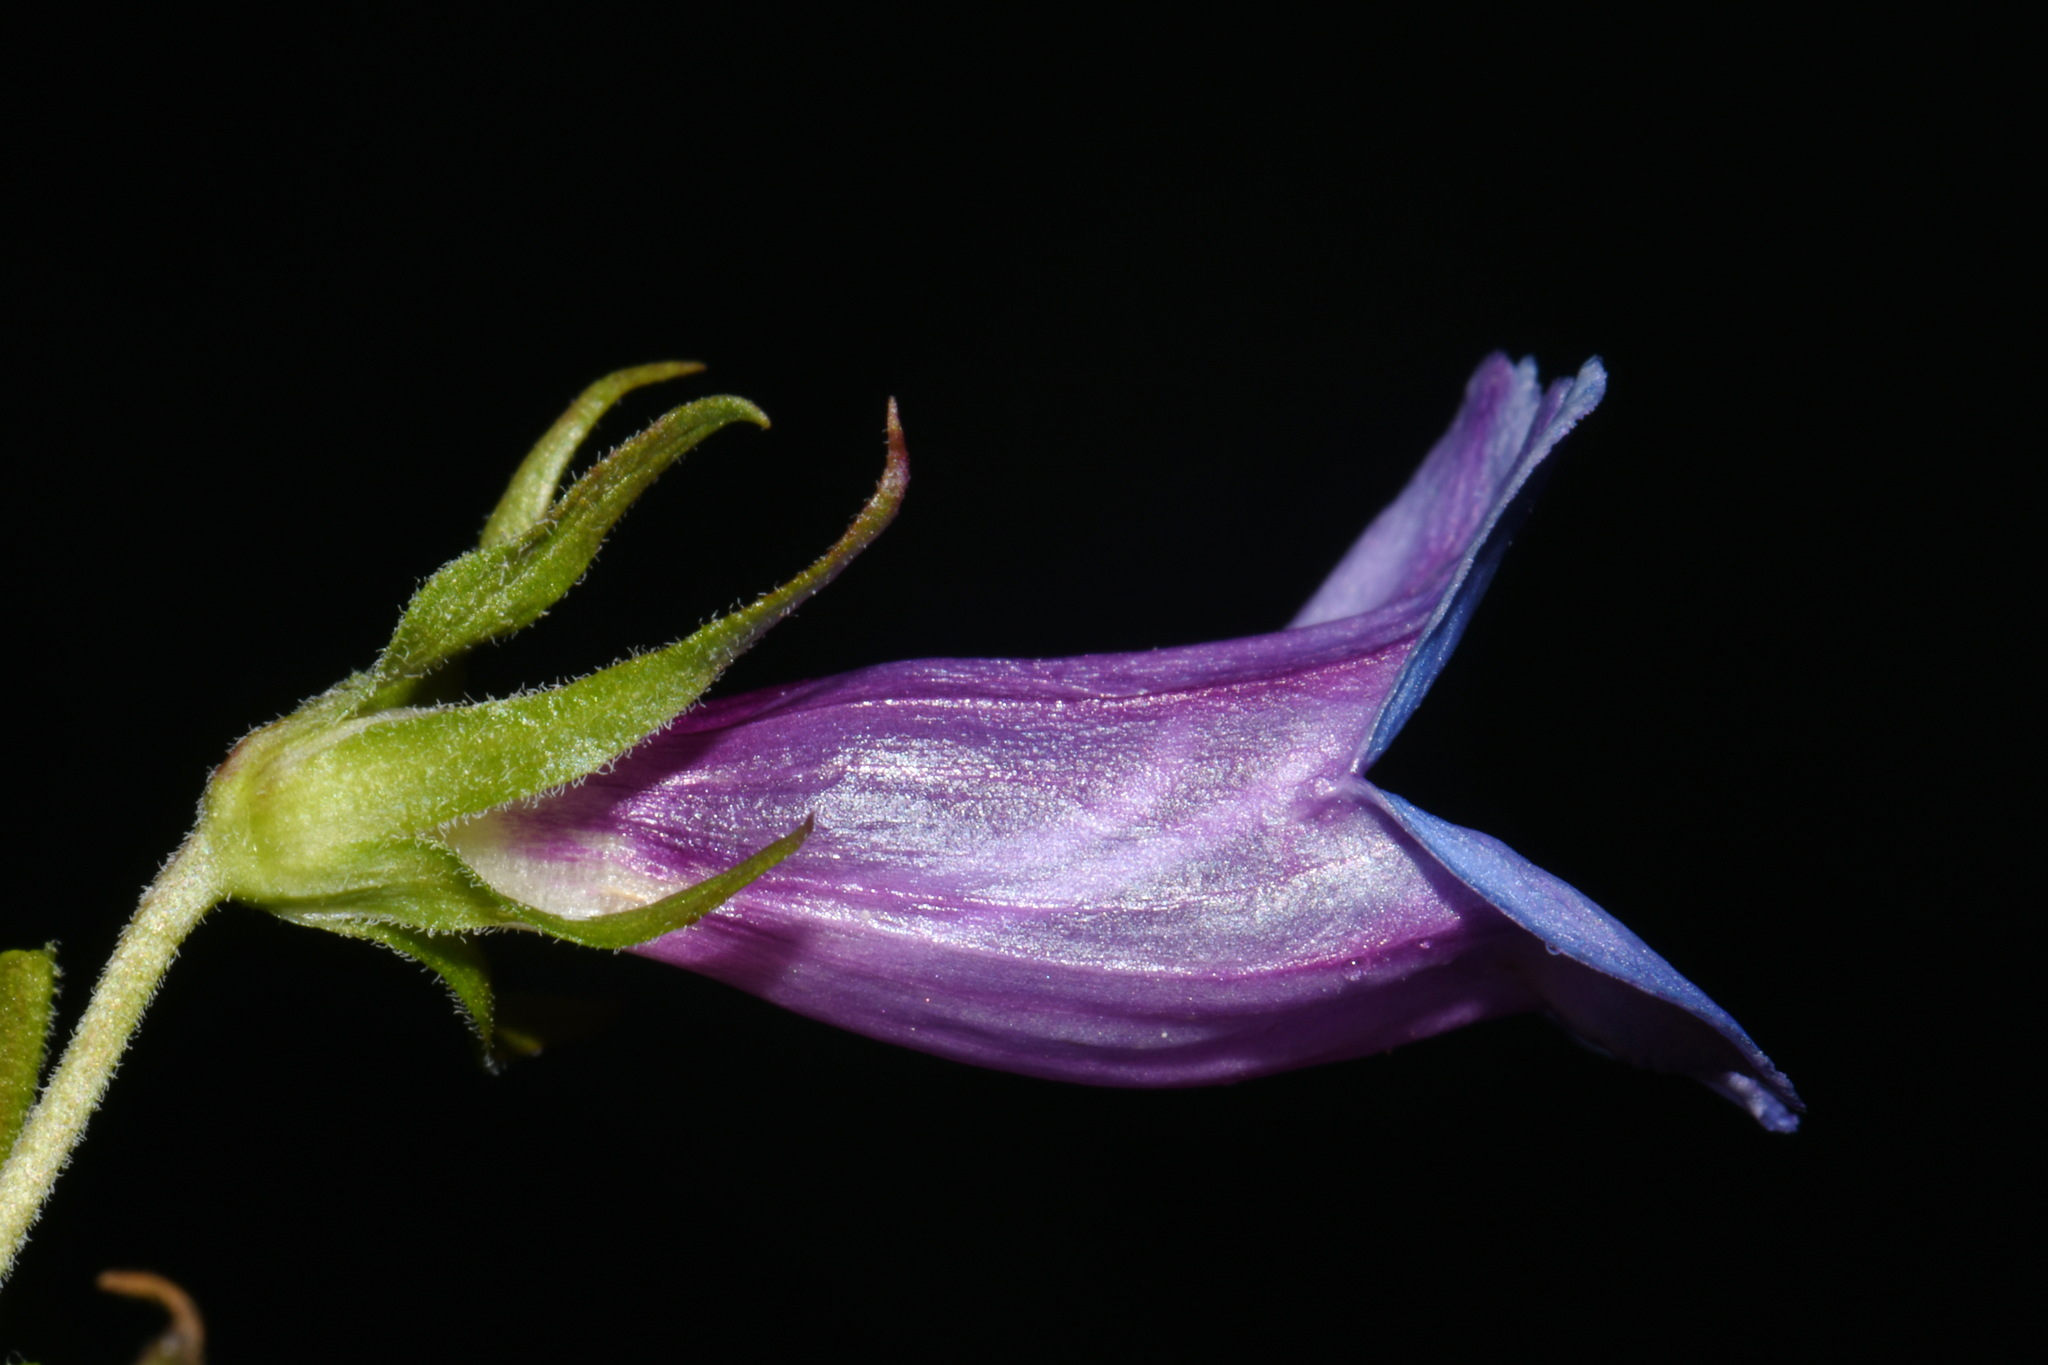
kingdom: Plantae
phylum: Tracheophyta
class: Magnoliopsida
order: Lamiales
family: Plantaginaceae
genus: Penstemon
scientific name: Penstemon serrulatus
